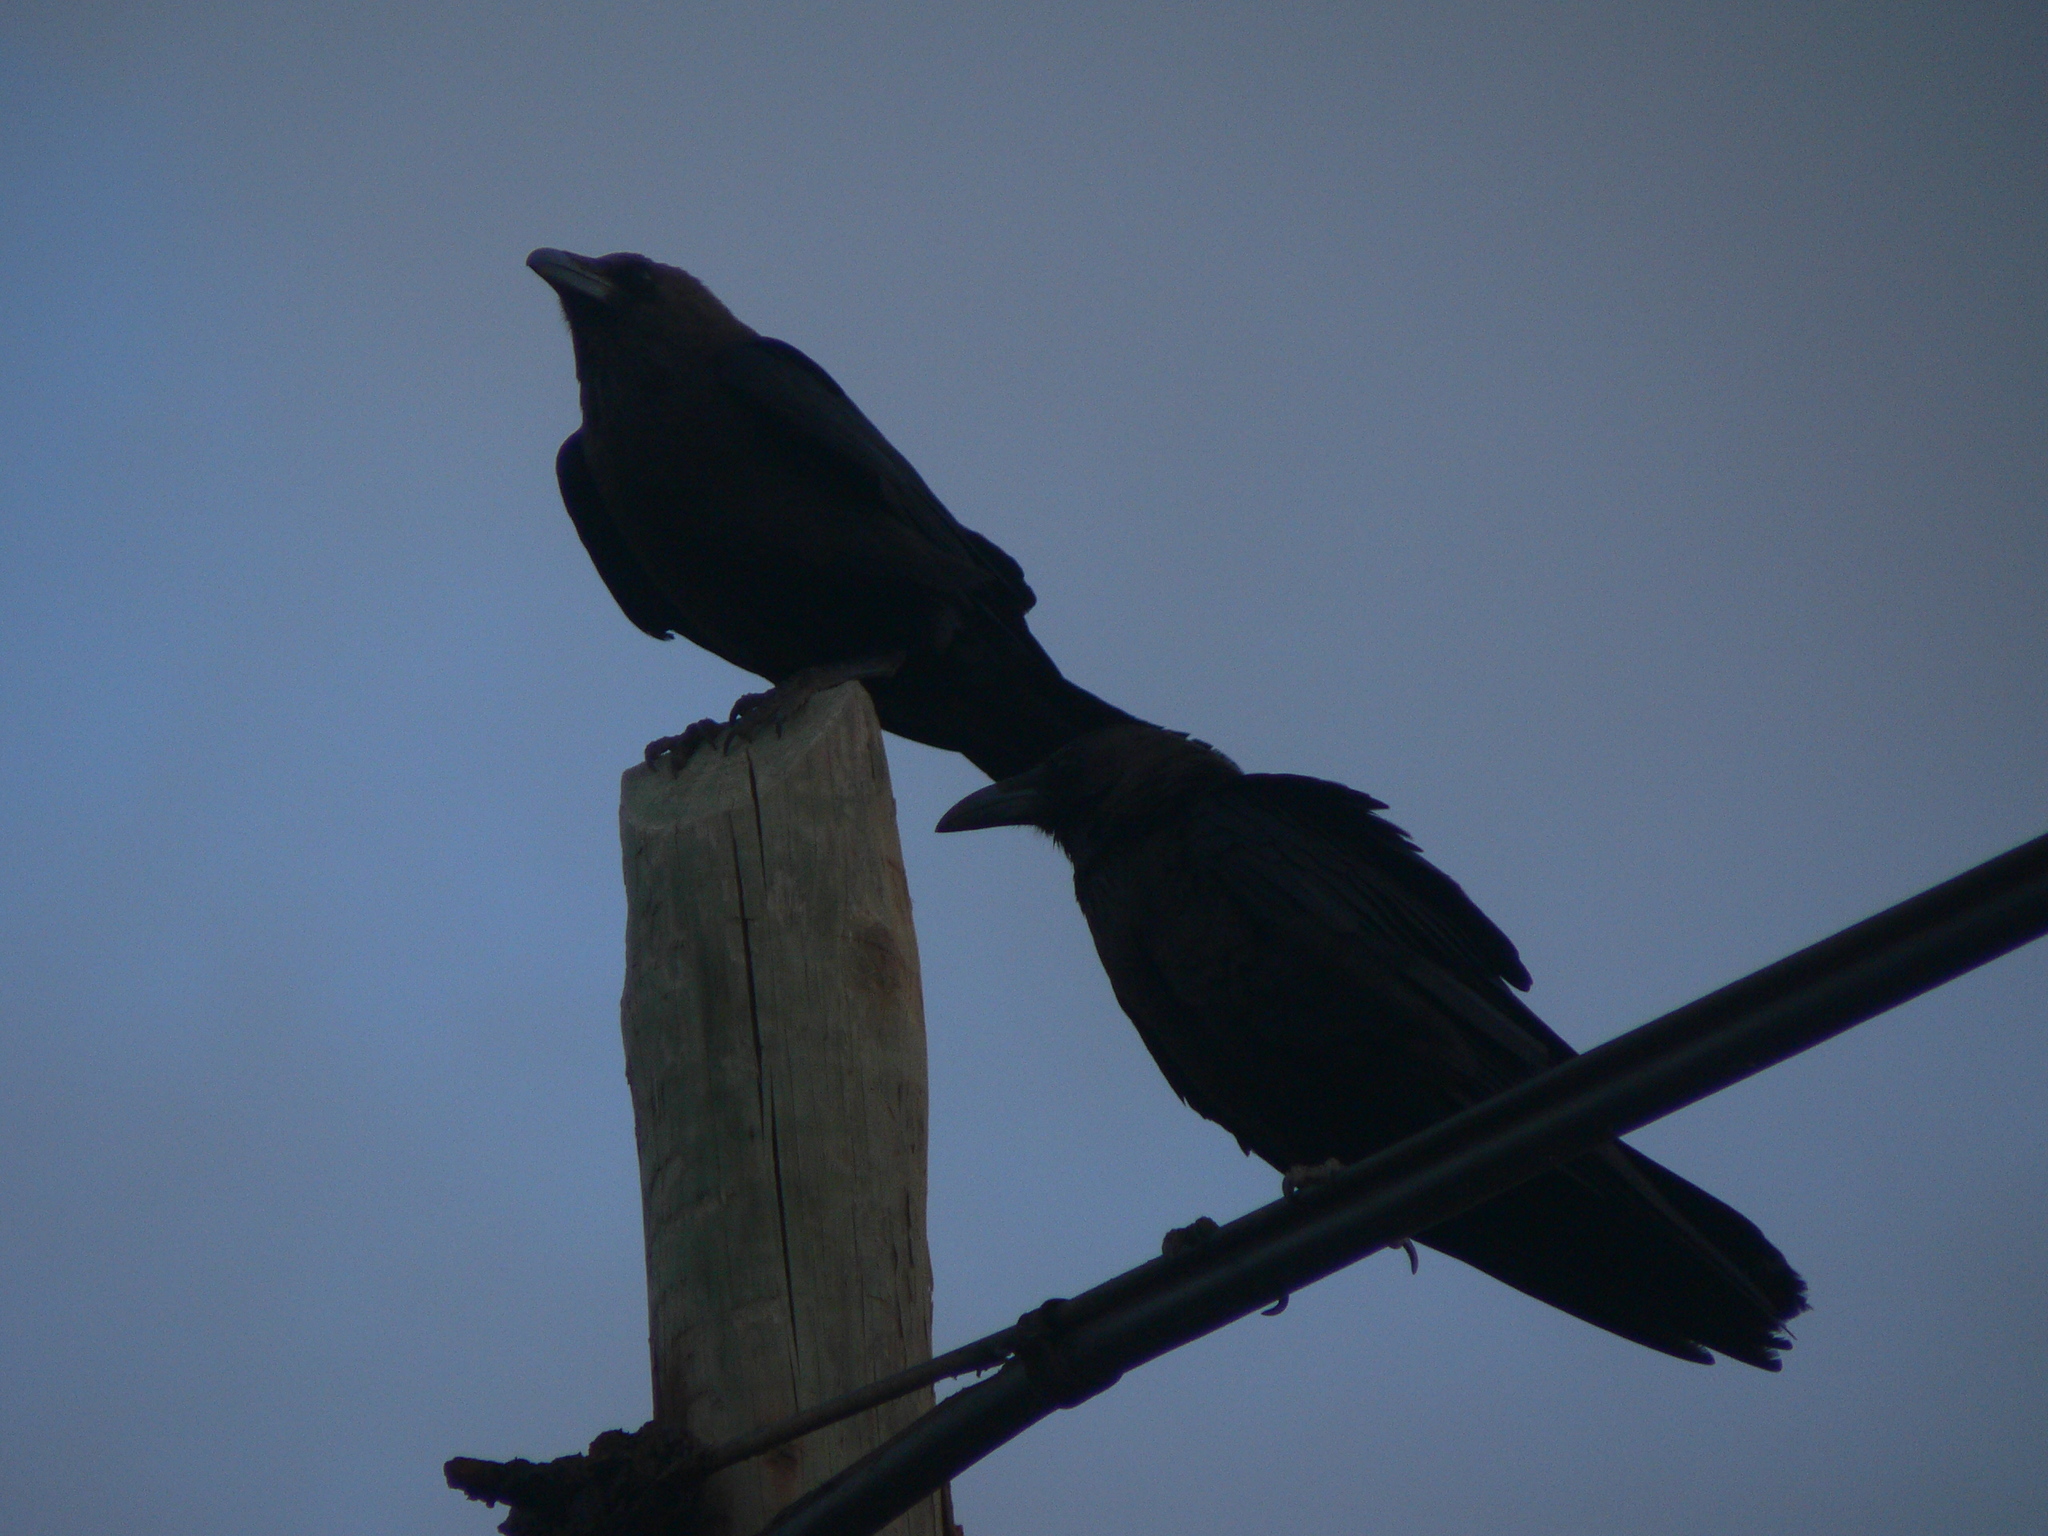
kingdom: Animalia
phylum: Chordata
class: Aves
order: Passeriformes
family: Corvidae
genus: Corvus
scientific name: Corvus ruficollis
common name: Brown-necked raven
